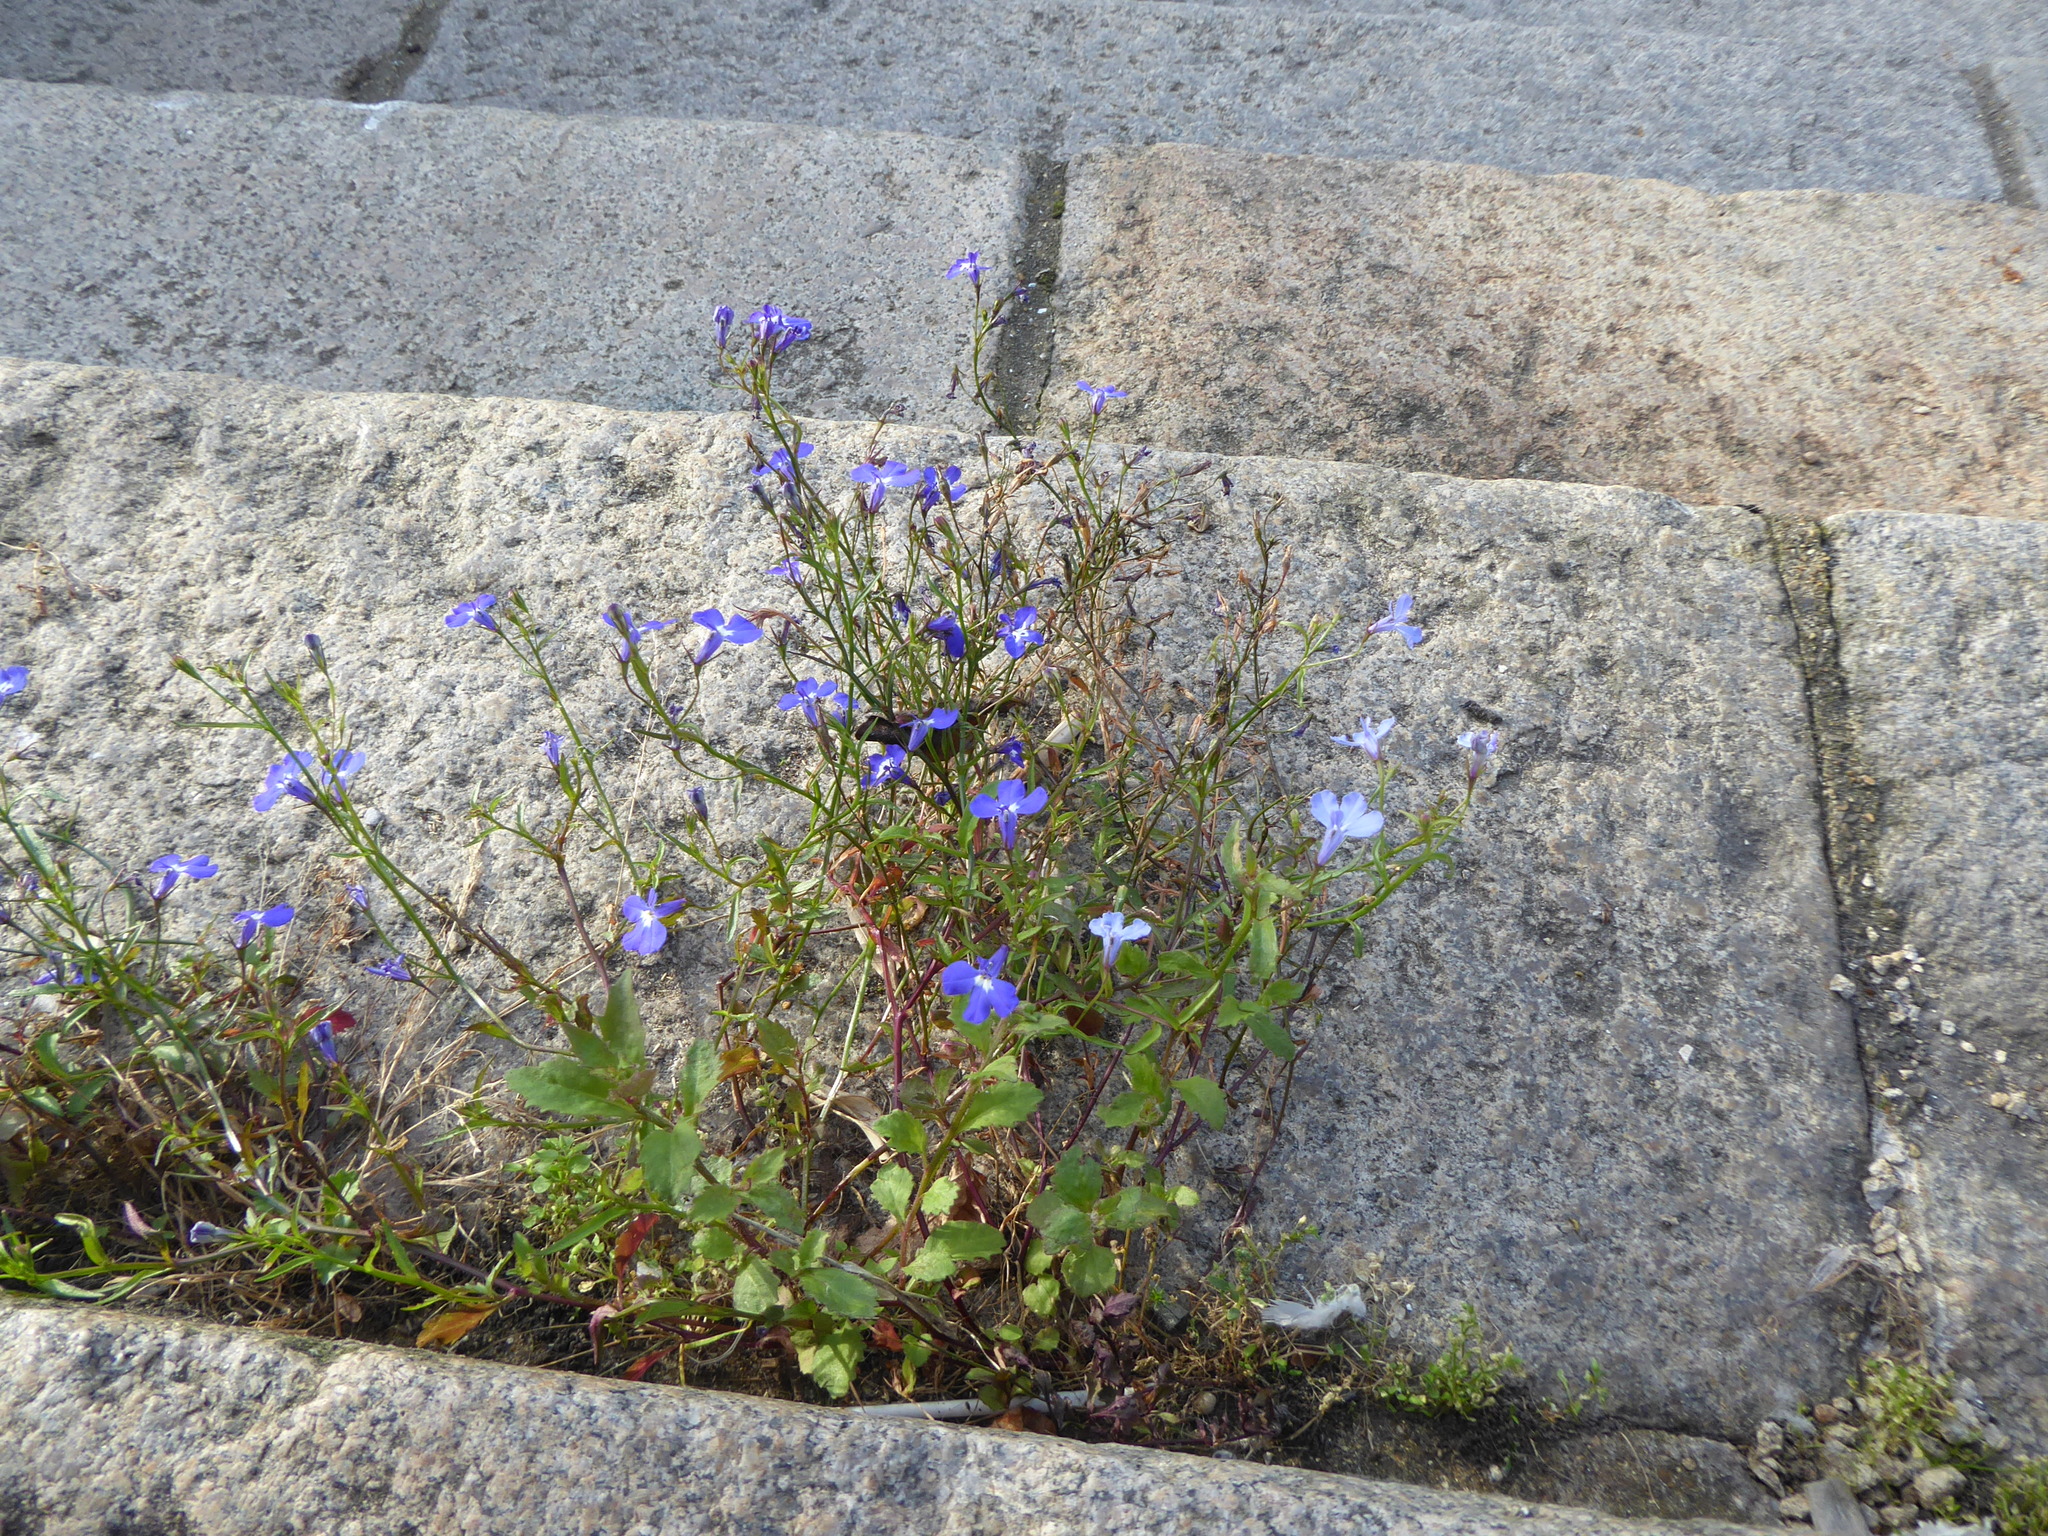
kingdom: Plantae
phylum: Tracheophyta
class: Magnoliopsida
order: Asterales
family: Campanulaceae
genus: Lobelia
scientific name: Lobelia erinus
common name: Edging lobelia
